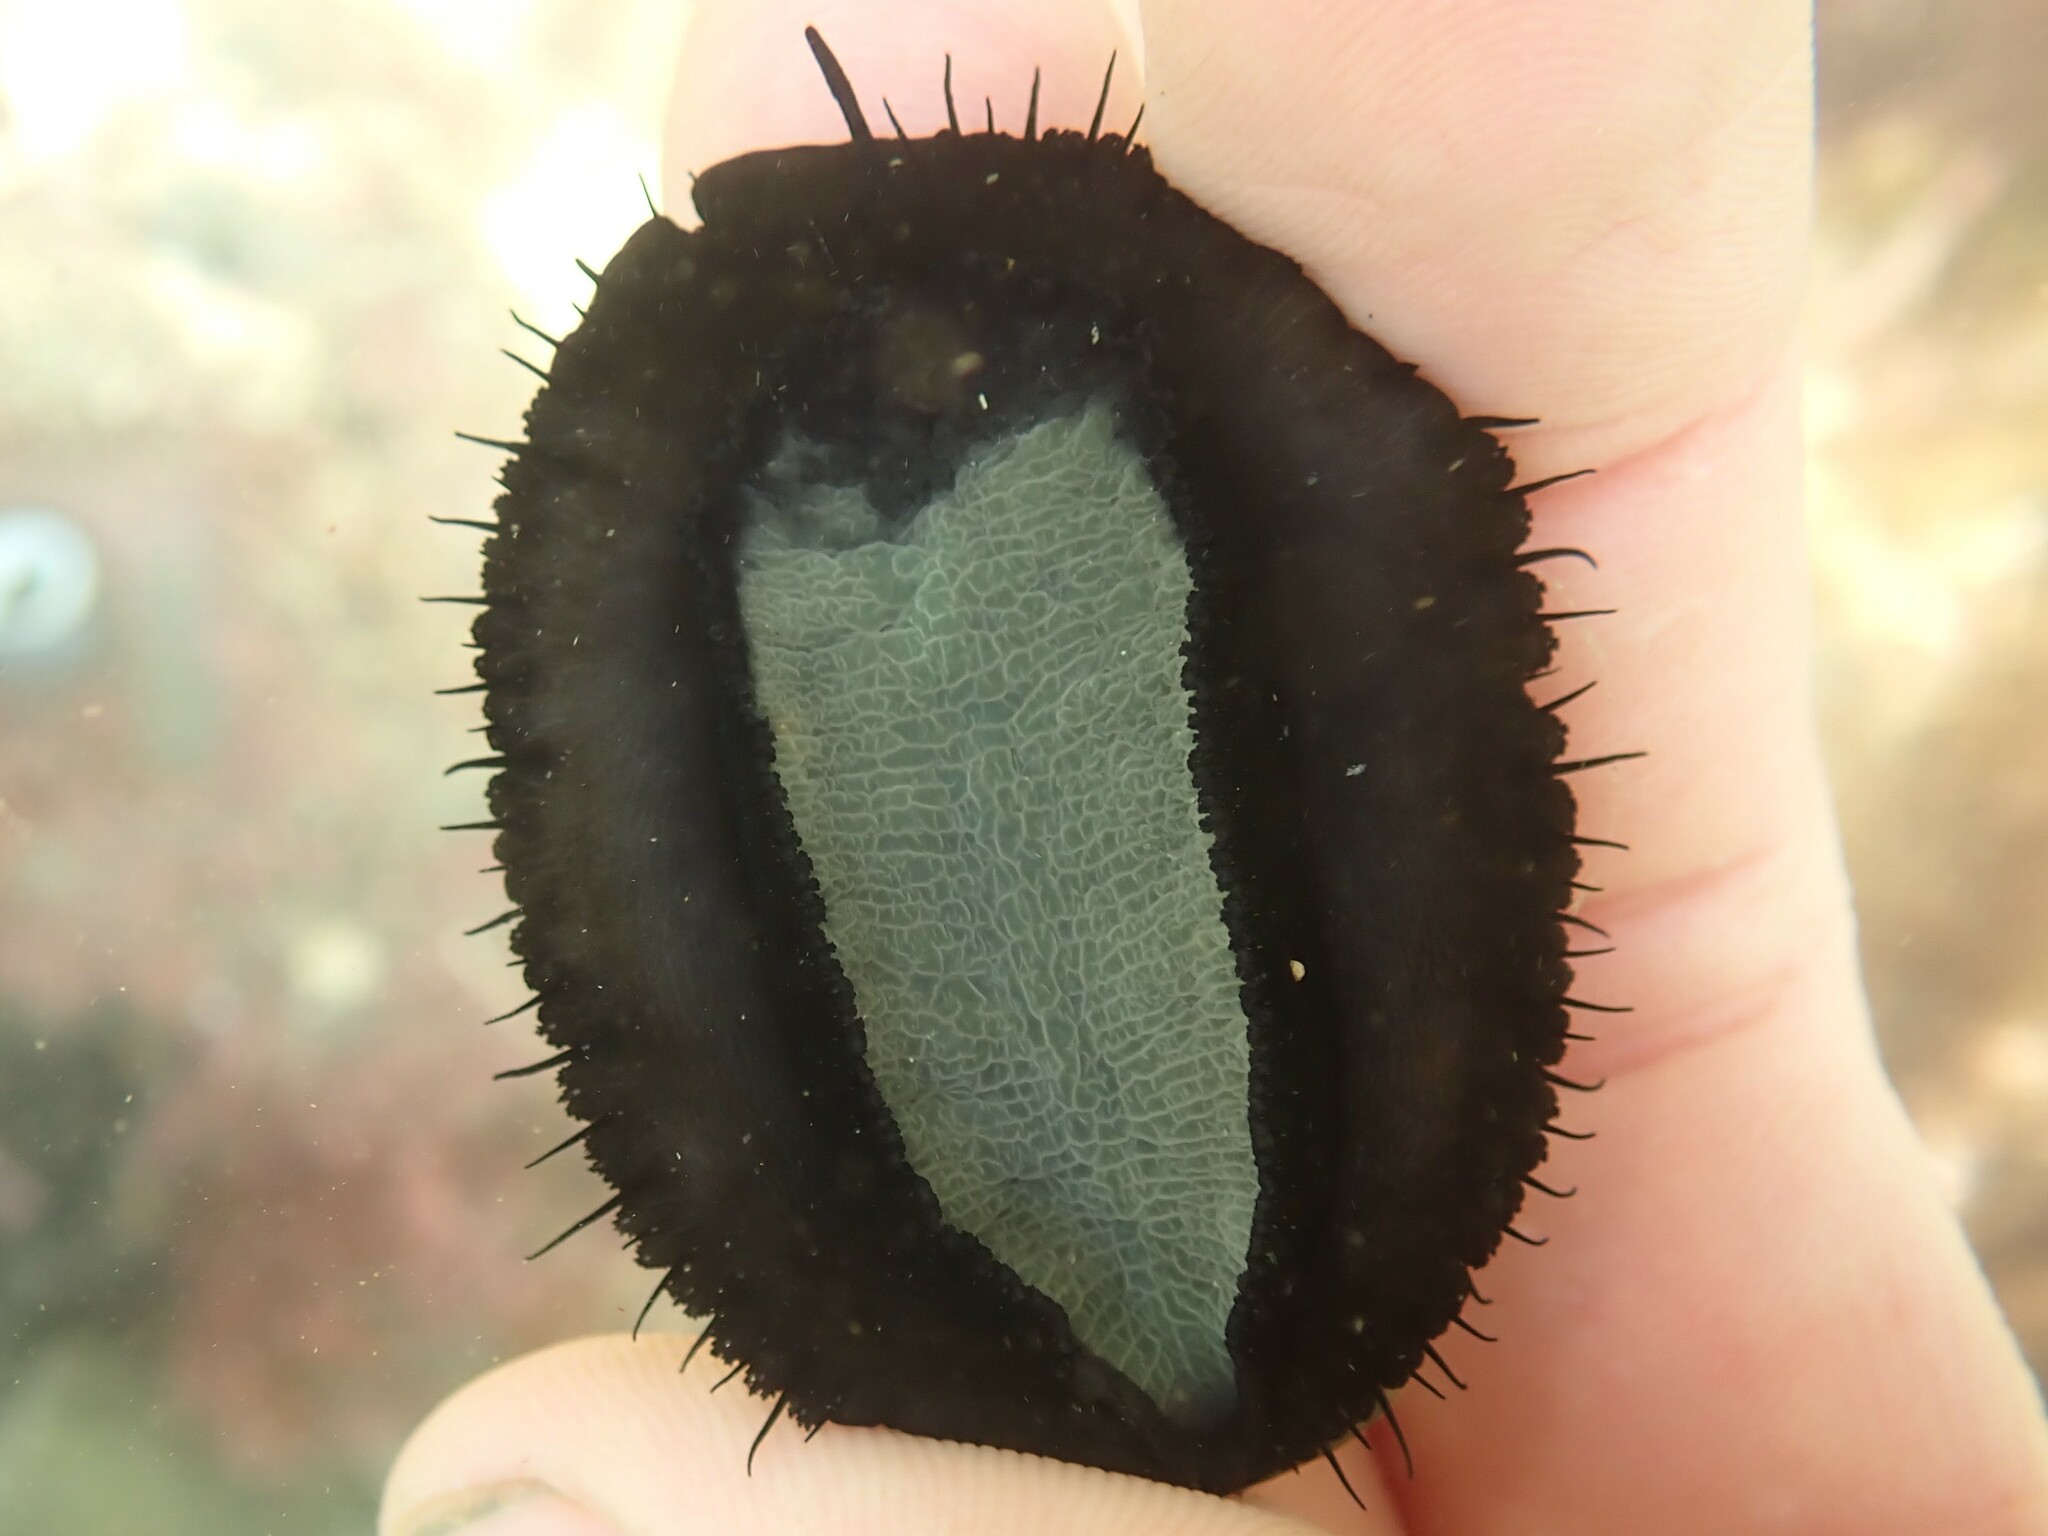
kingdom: Animalia
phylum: Mollusca
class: Gastropoda
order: Lepetellida
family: Haliotidae
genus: Haliotis
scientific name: Haliotis iris
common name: Abalone
